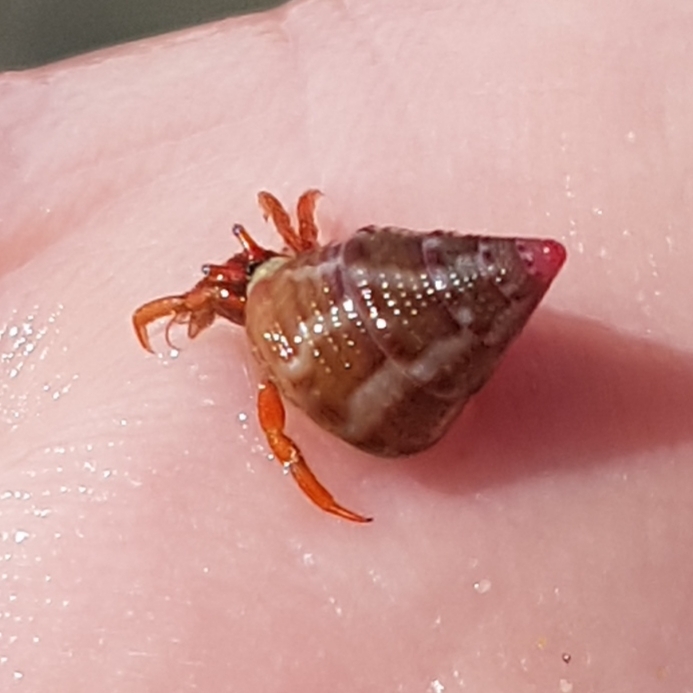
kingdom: Animalia
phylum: Mollusca
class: Gastropoda
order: Trochida
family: Trochidae
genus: Jujubinus
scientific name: Jujubinus exasperatus
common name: Rough top shell
